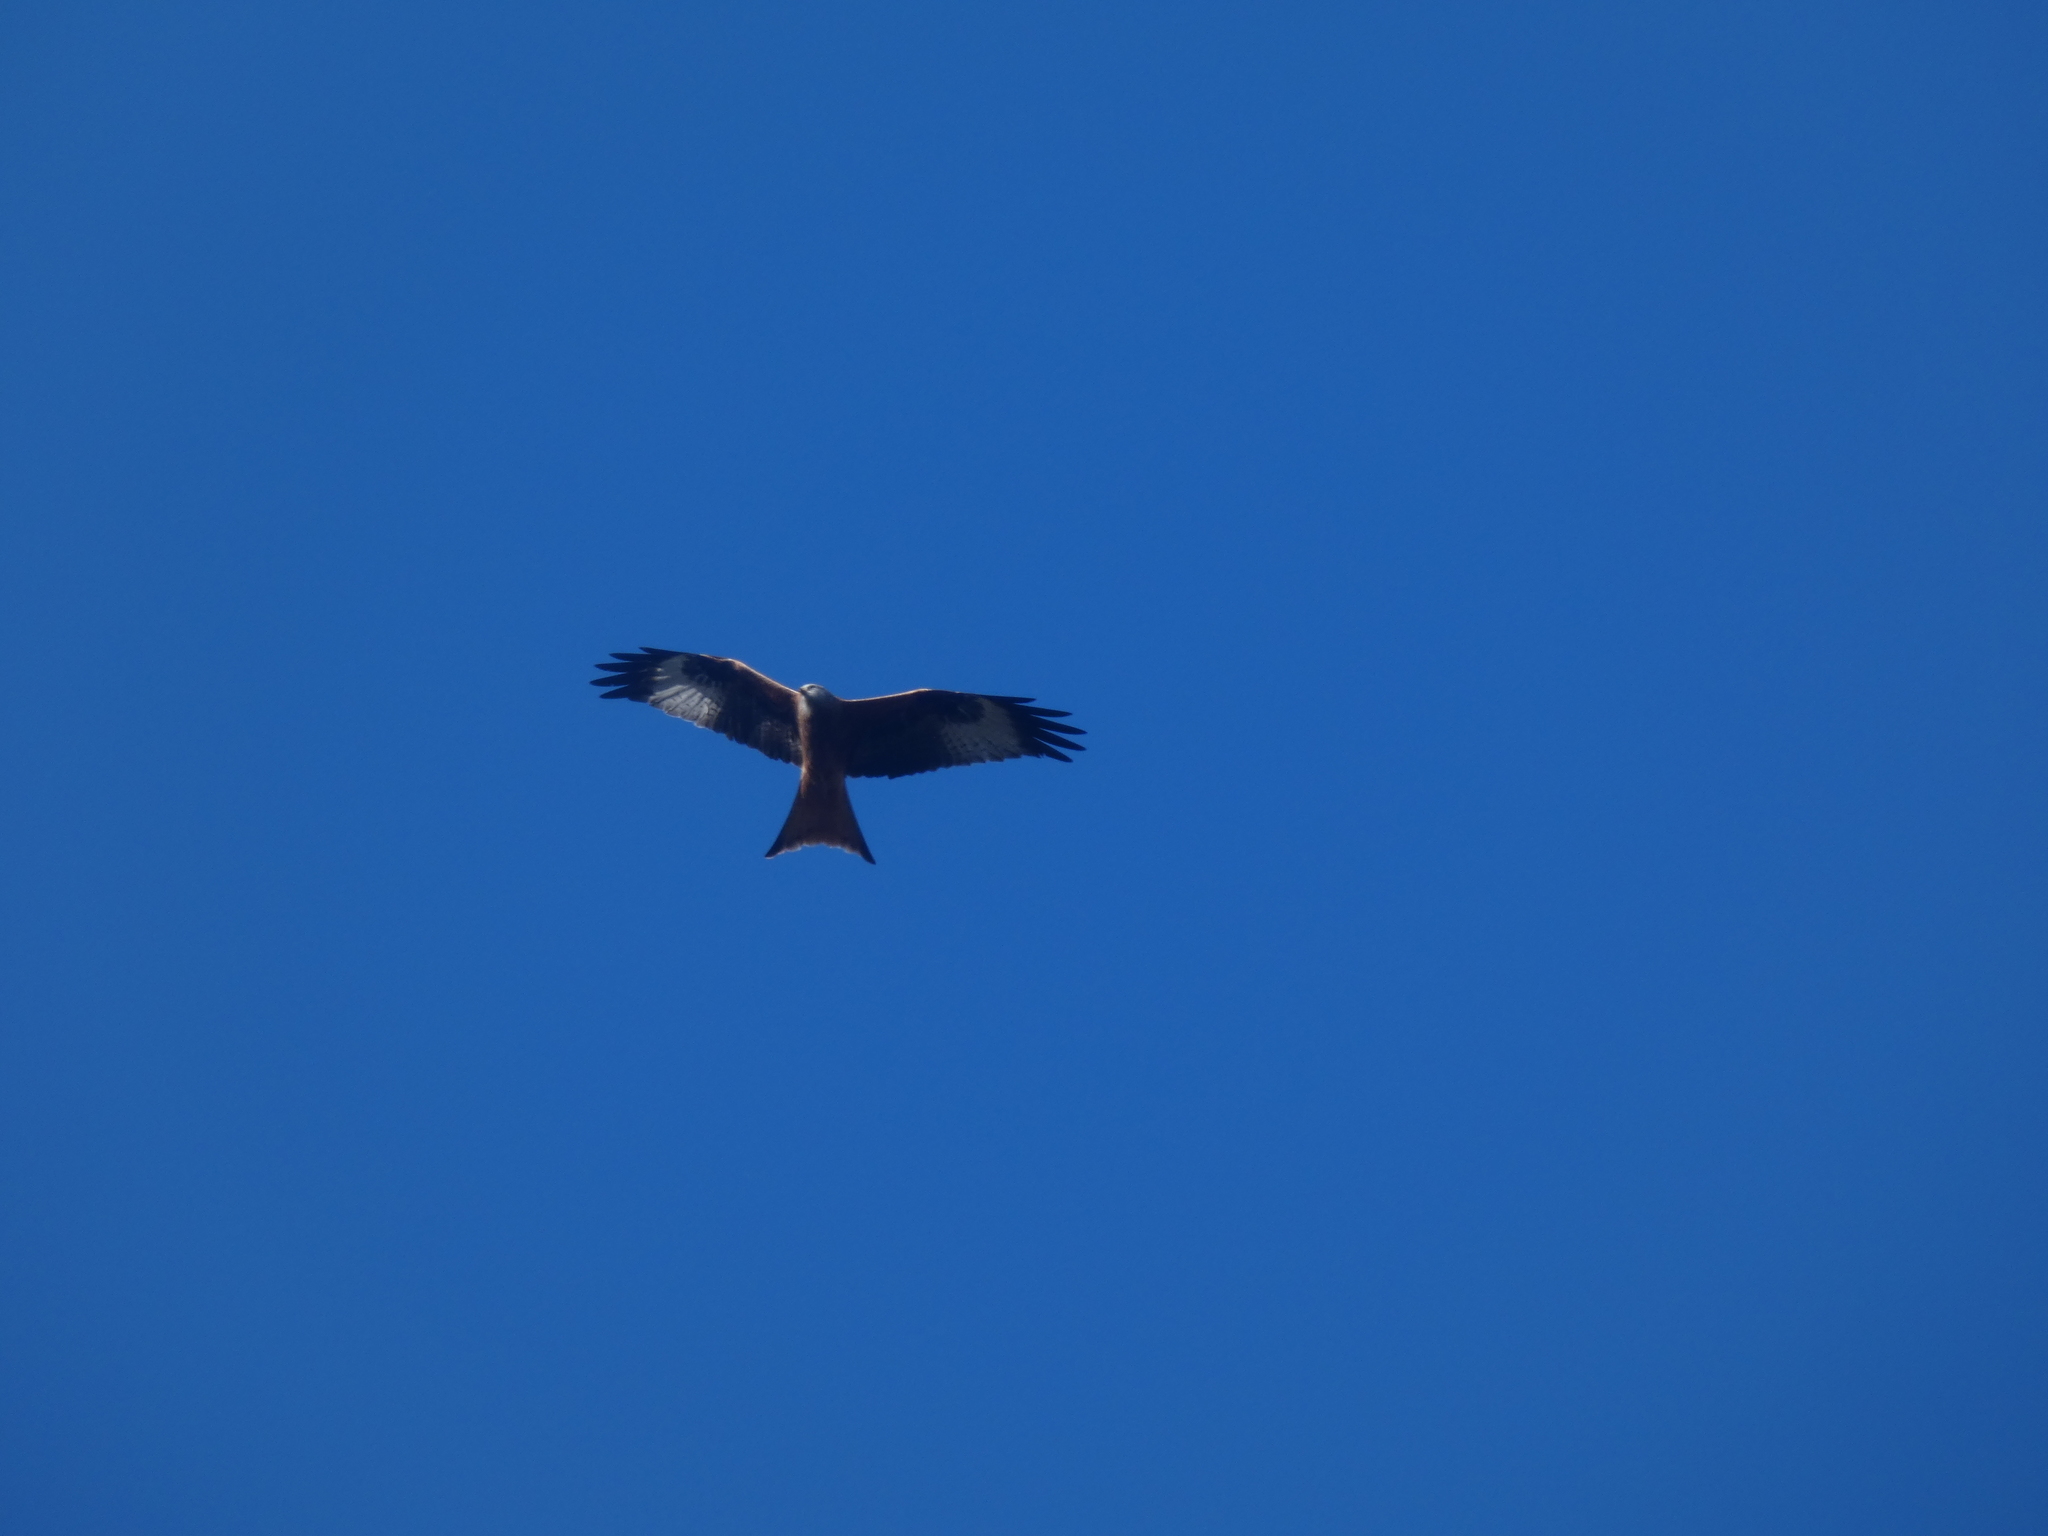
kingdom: Animalia
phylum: Chordata
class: Aves
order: Accipitriformes
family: Accipitridae
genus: Milvus
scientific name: Milvus milvus
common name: Red kite
